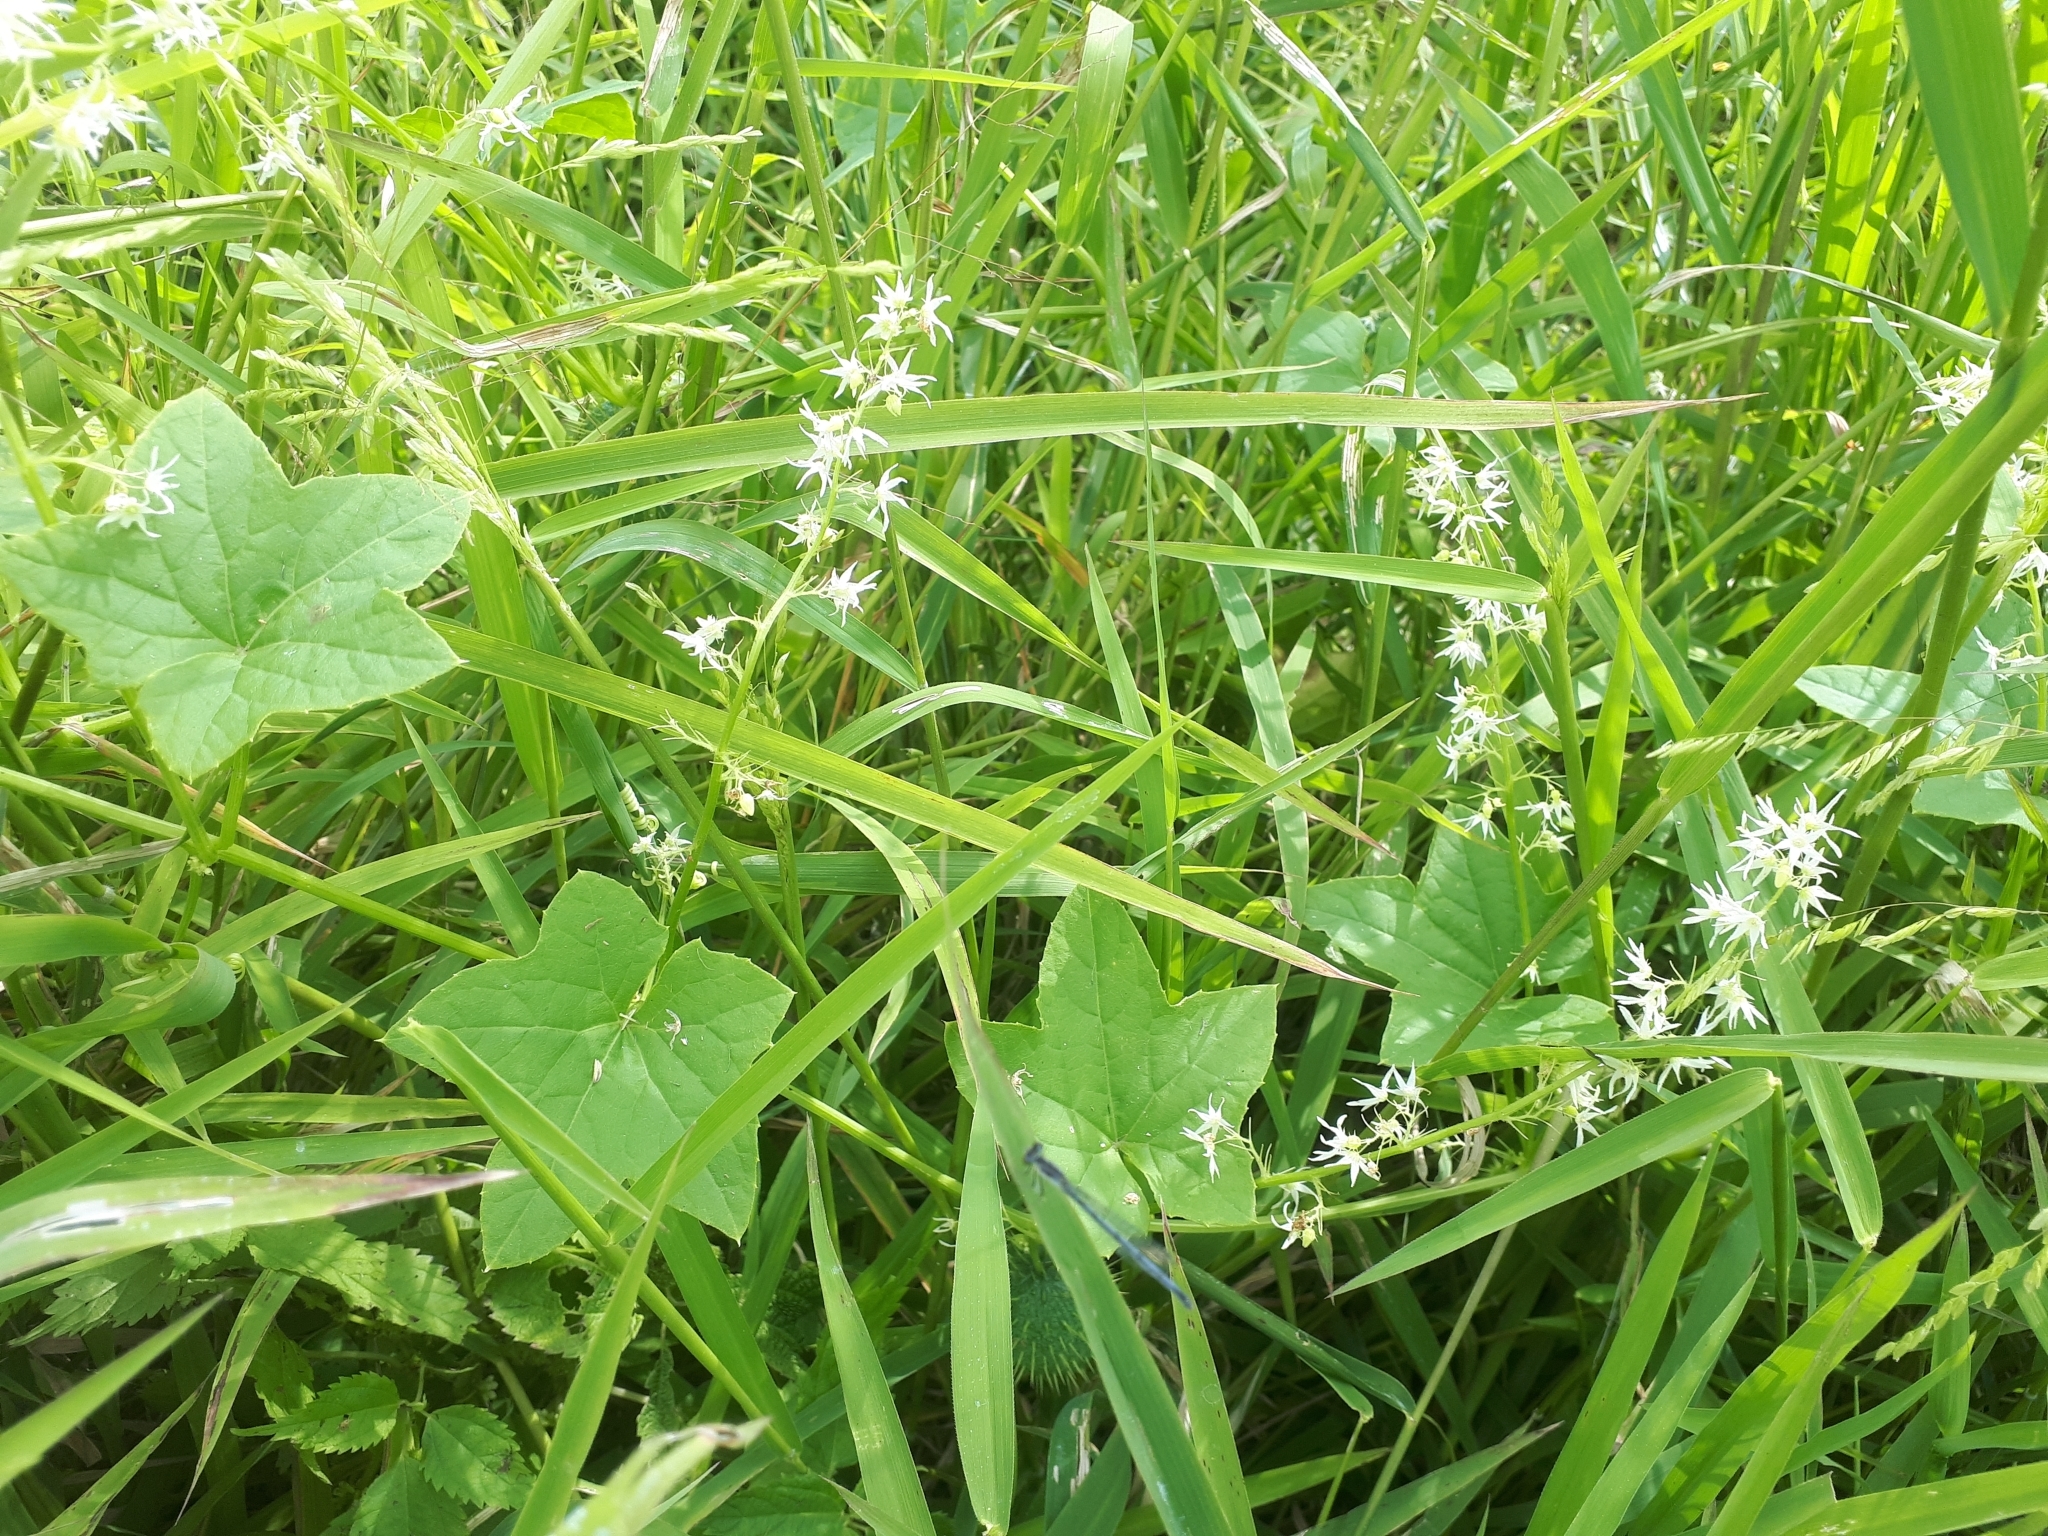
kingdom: Plantae
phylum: Tracheophyta
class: Magnoliopsida
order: Cucurbitales
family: Cucurbitaceae
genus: Echinocystis
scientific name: Echinocystis lobata
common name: Wild cucumber
